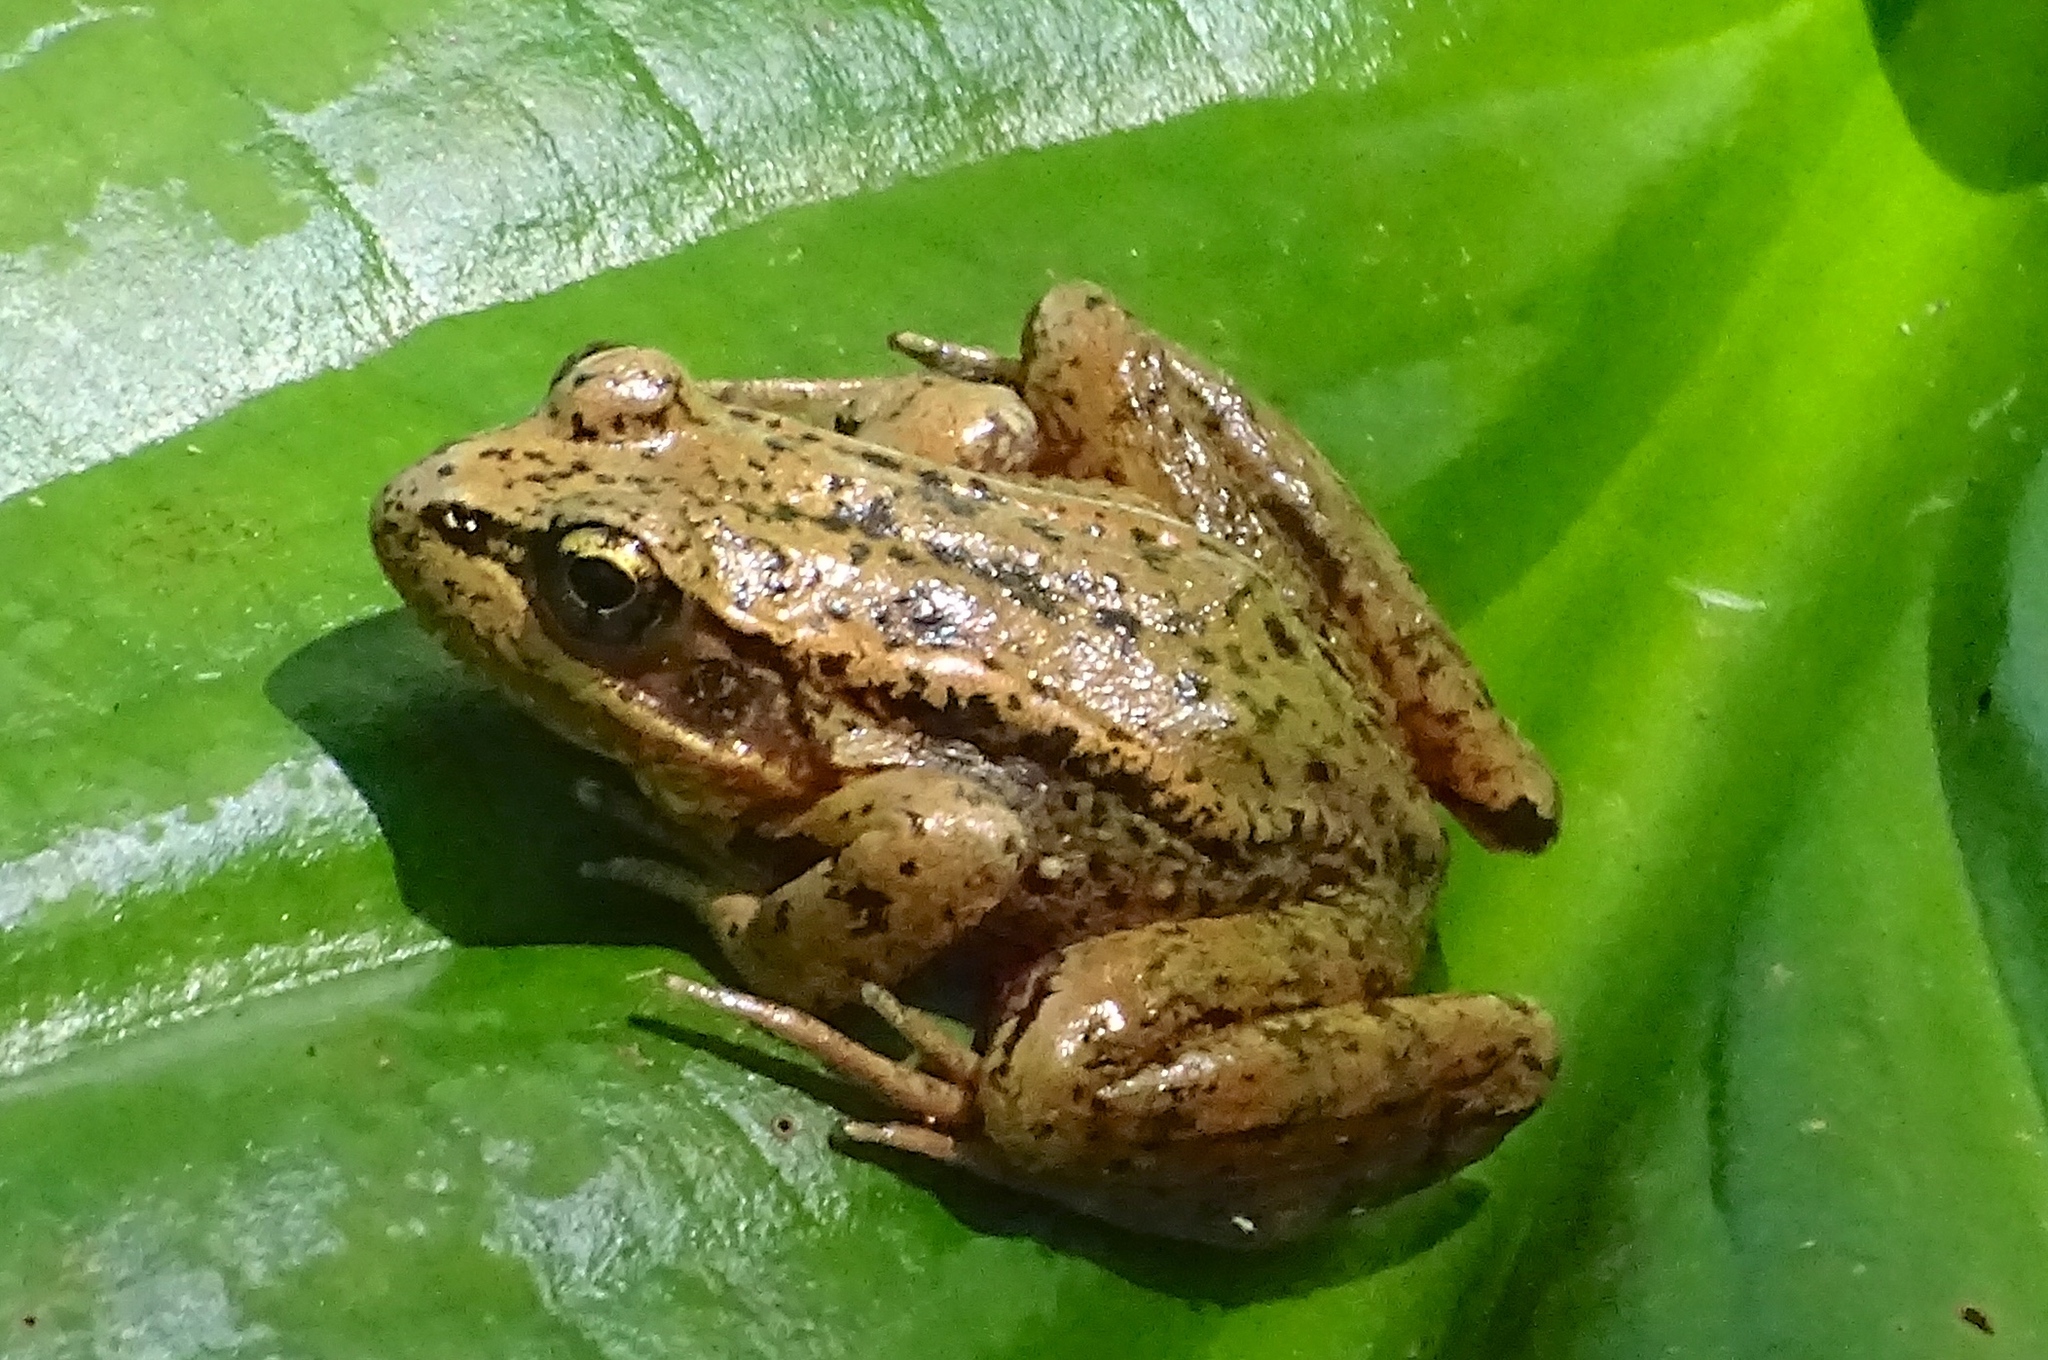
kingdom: Animalia
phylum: Chordata
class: Amphibia
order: Anura
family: Ranidae
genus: Rana
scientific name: Rana aurora
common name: Red-legged frog
